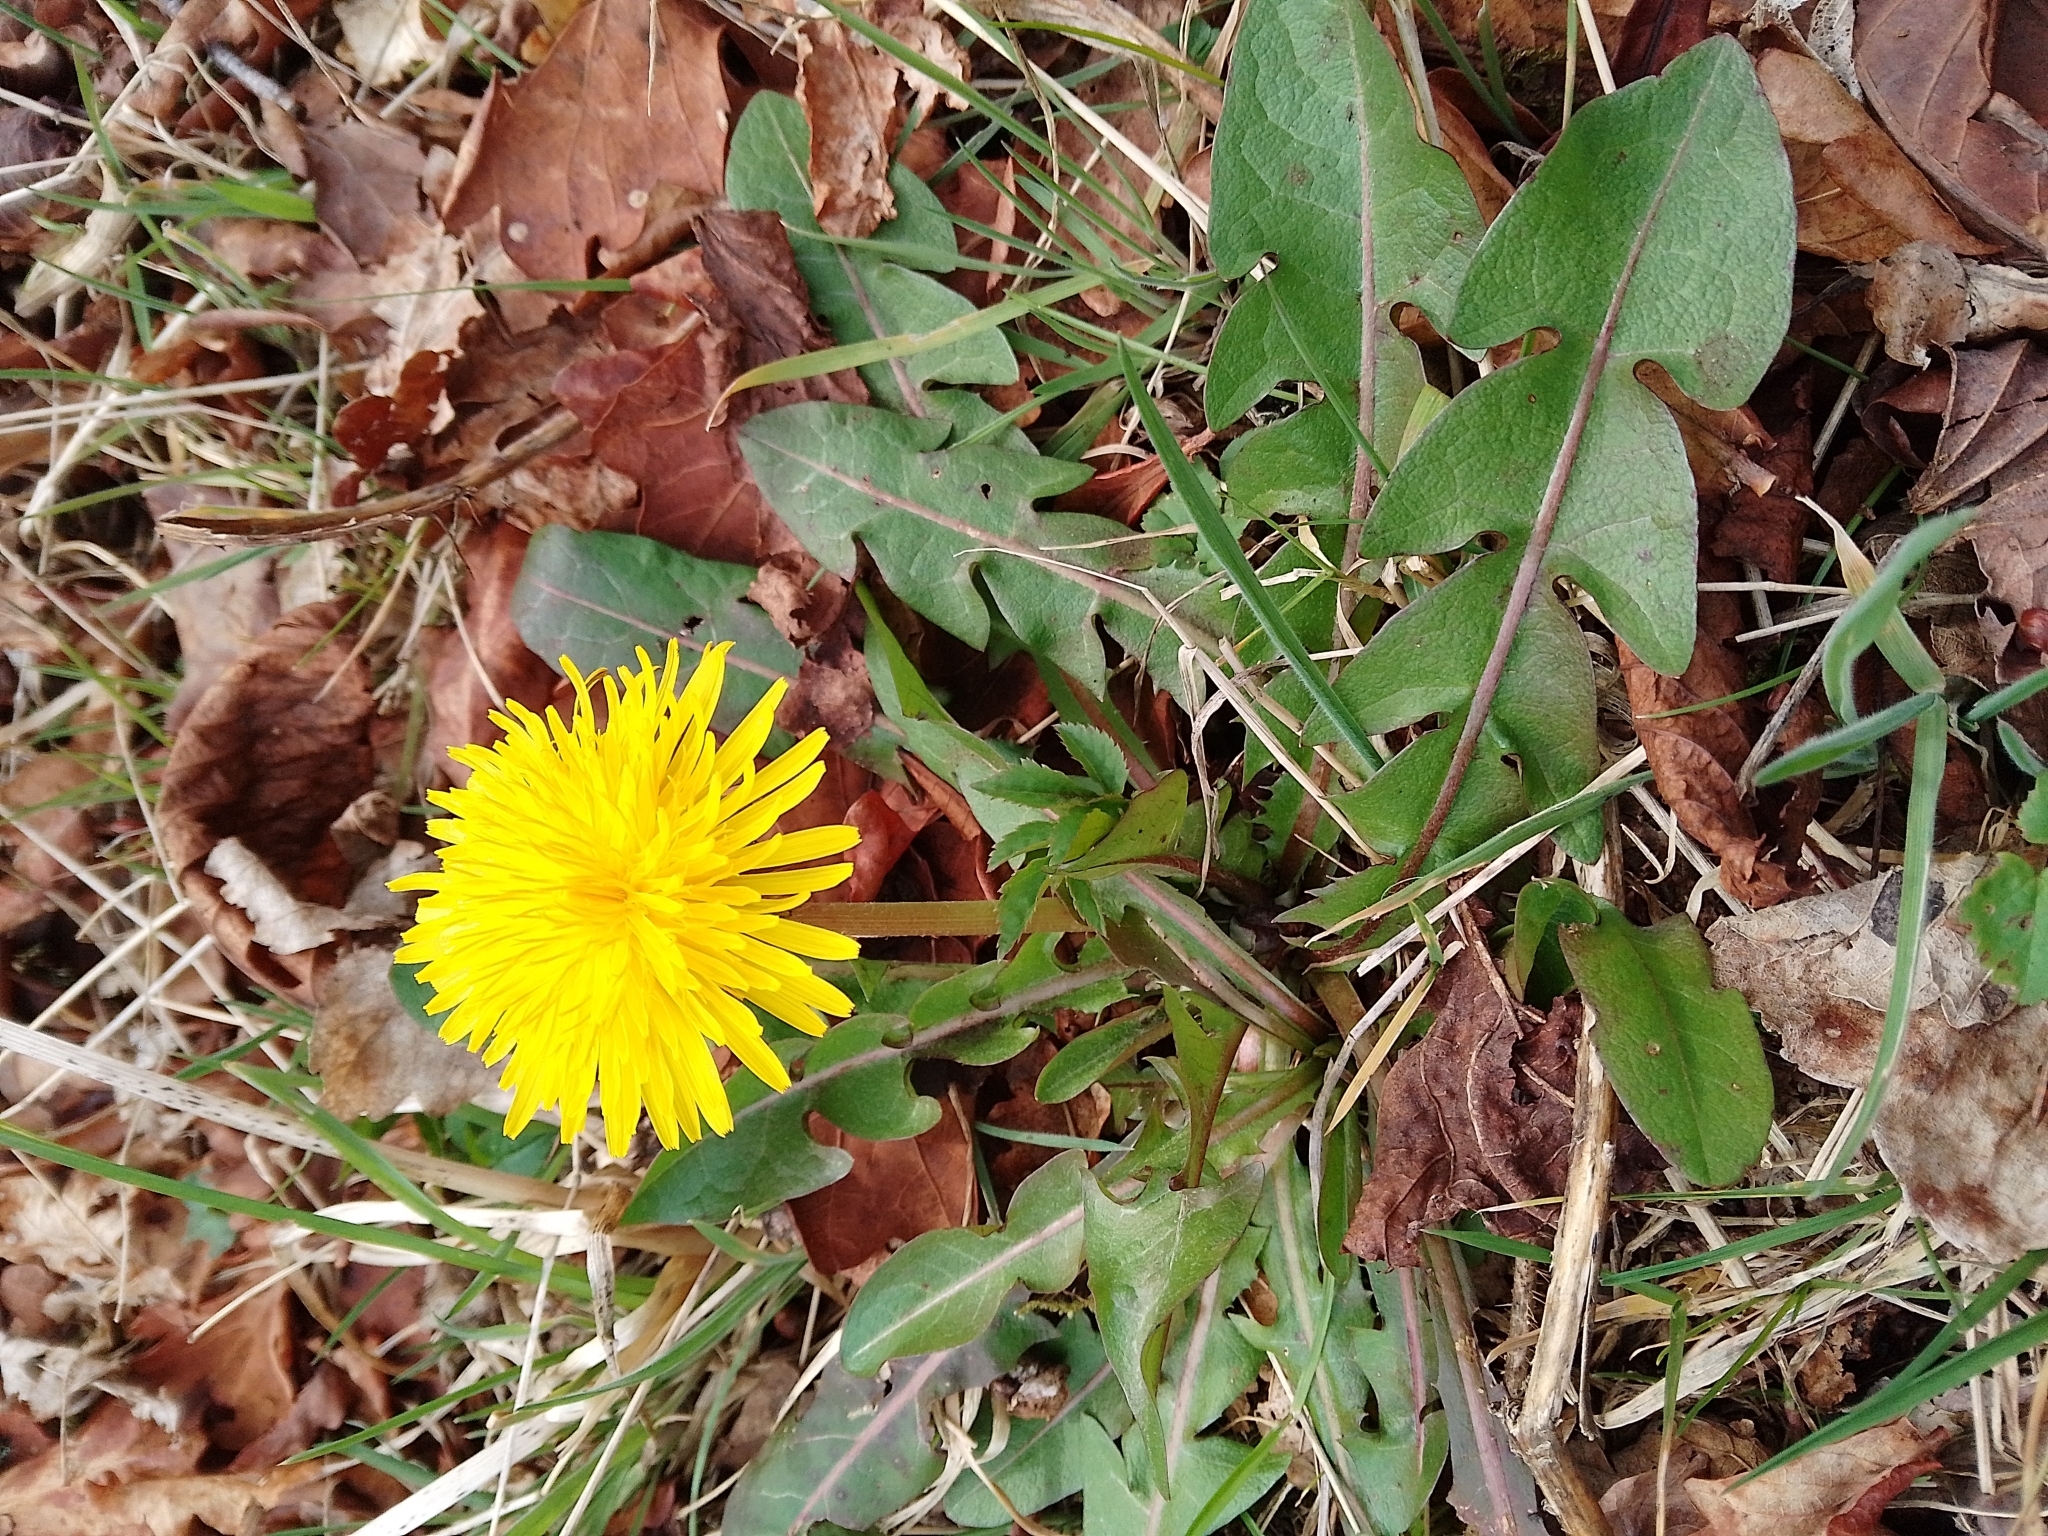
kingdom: Plantae
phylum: Tracheophyta
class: Magnoliopsida
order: Asterales
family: Asteraceae
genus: Taraxacum
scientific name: Taraxacum officinale
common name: Common dandelion
